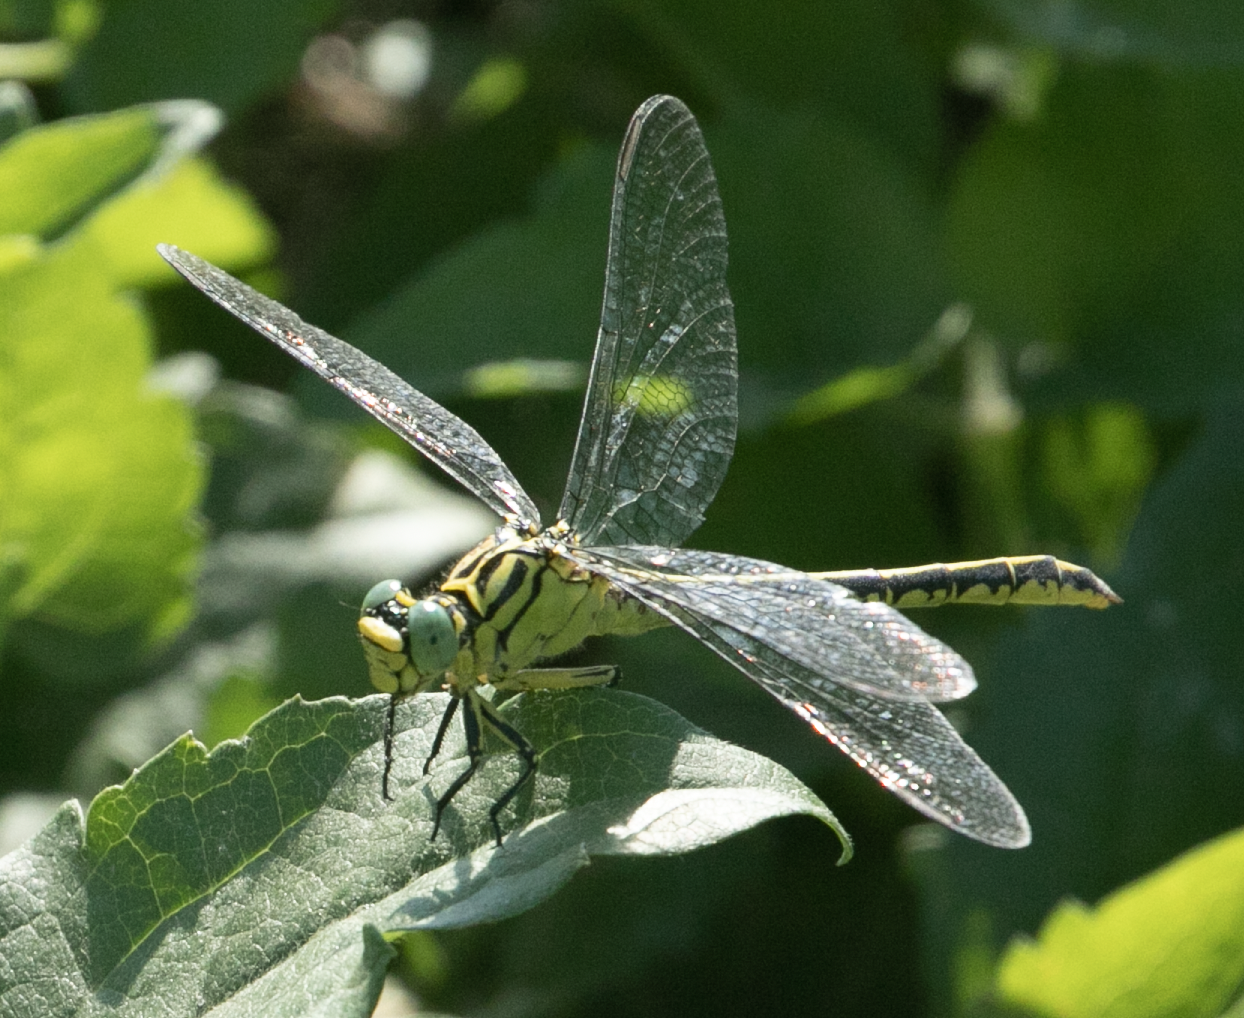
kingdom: Animalia
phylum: Arthropoda
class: Insecta
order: Odonata
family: Gomphidae
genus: Stylurus
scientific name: Stylurus flavipes
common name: River clubtail
